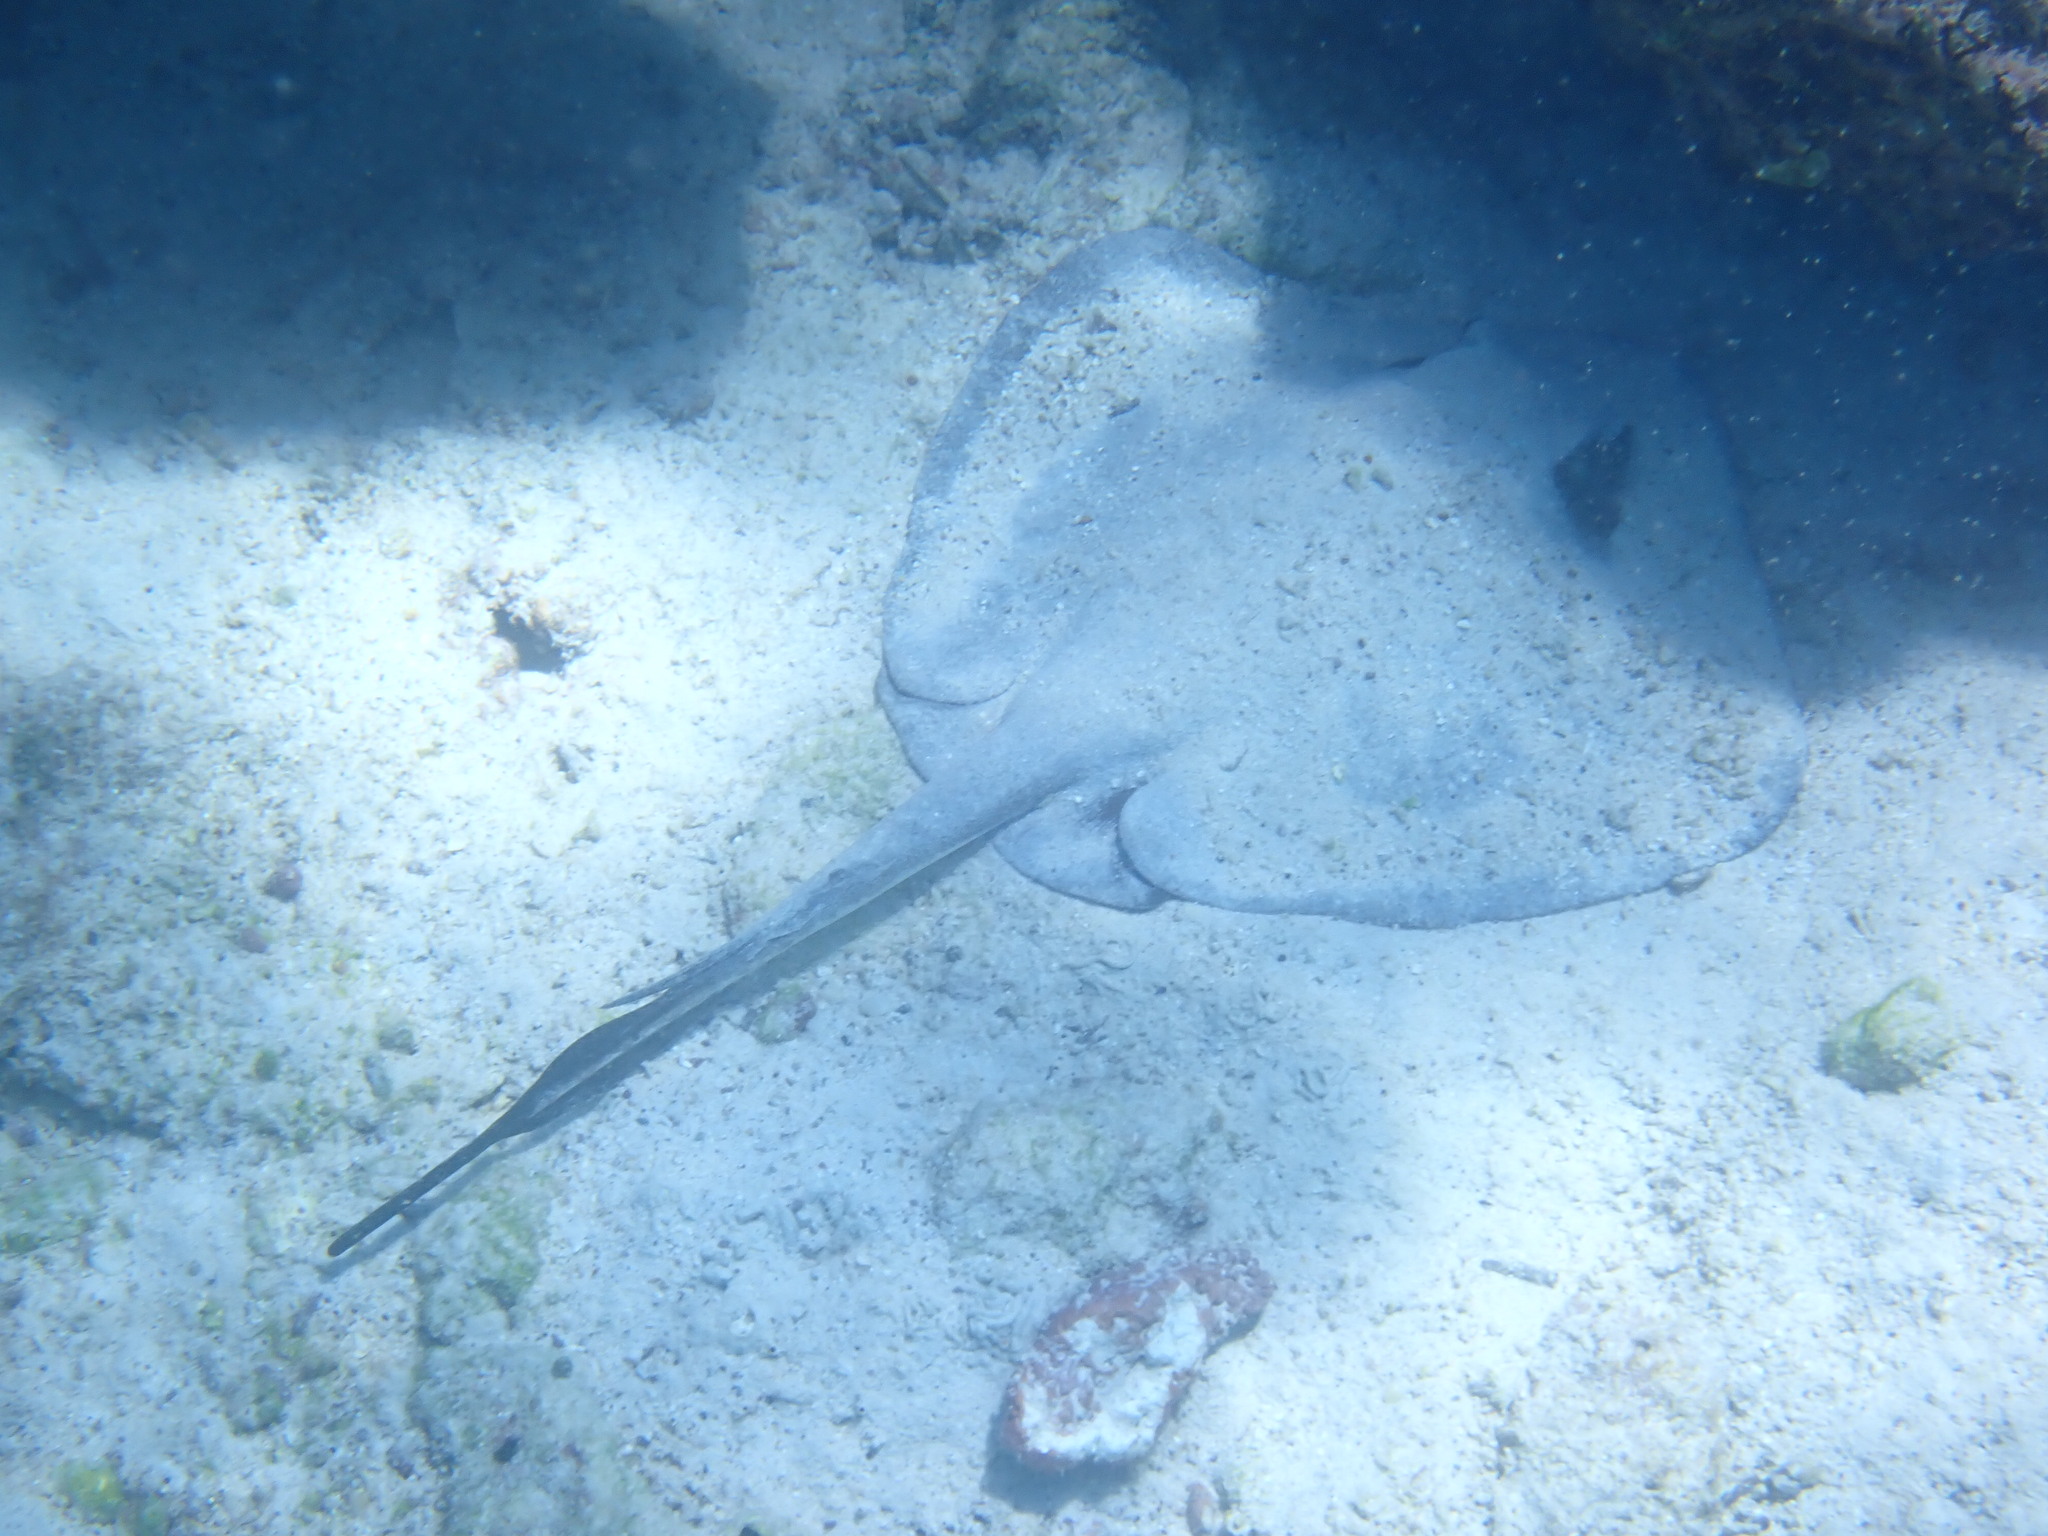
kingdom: Animalia
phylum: Chordata
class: Elasmobranchii
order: Myliobatiformes
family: Dasyatidae
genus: Hypanus
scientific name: Hypanus dipterurus
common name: Diamond stingray
